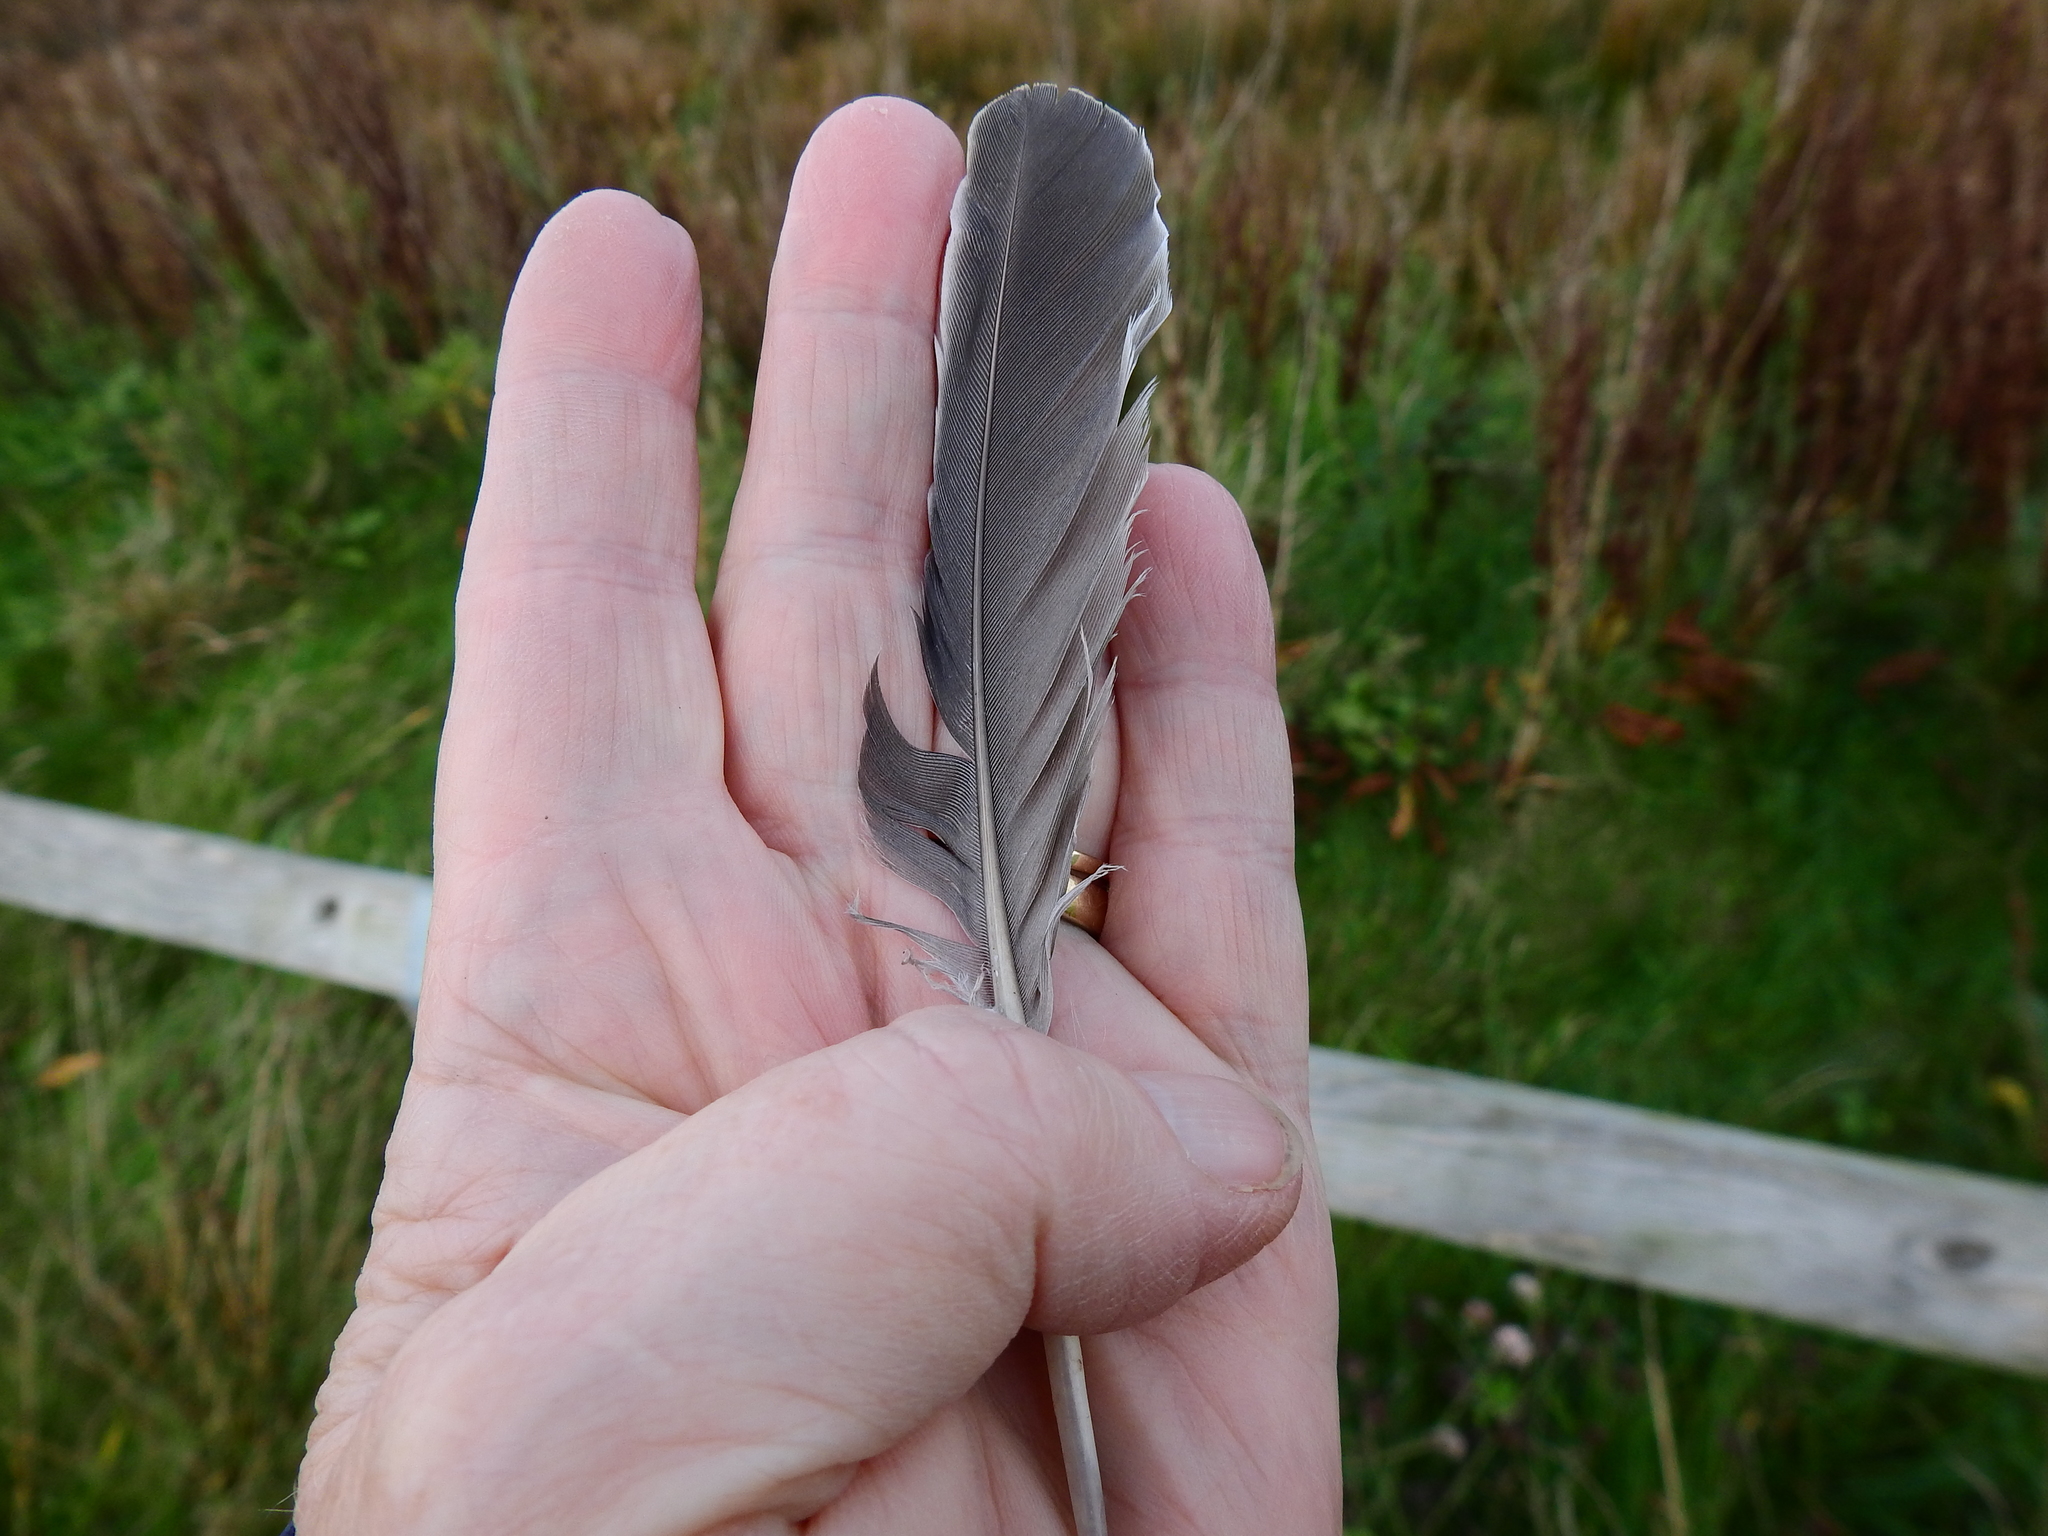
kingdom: Animalia
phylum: Chordata
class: Aves
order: Columbiformes
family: Columbidae
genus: Columba
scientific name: Columba palumbus
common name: Common wood pigeon
